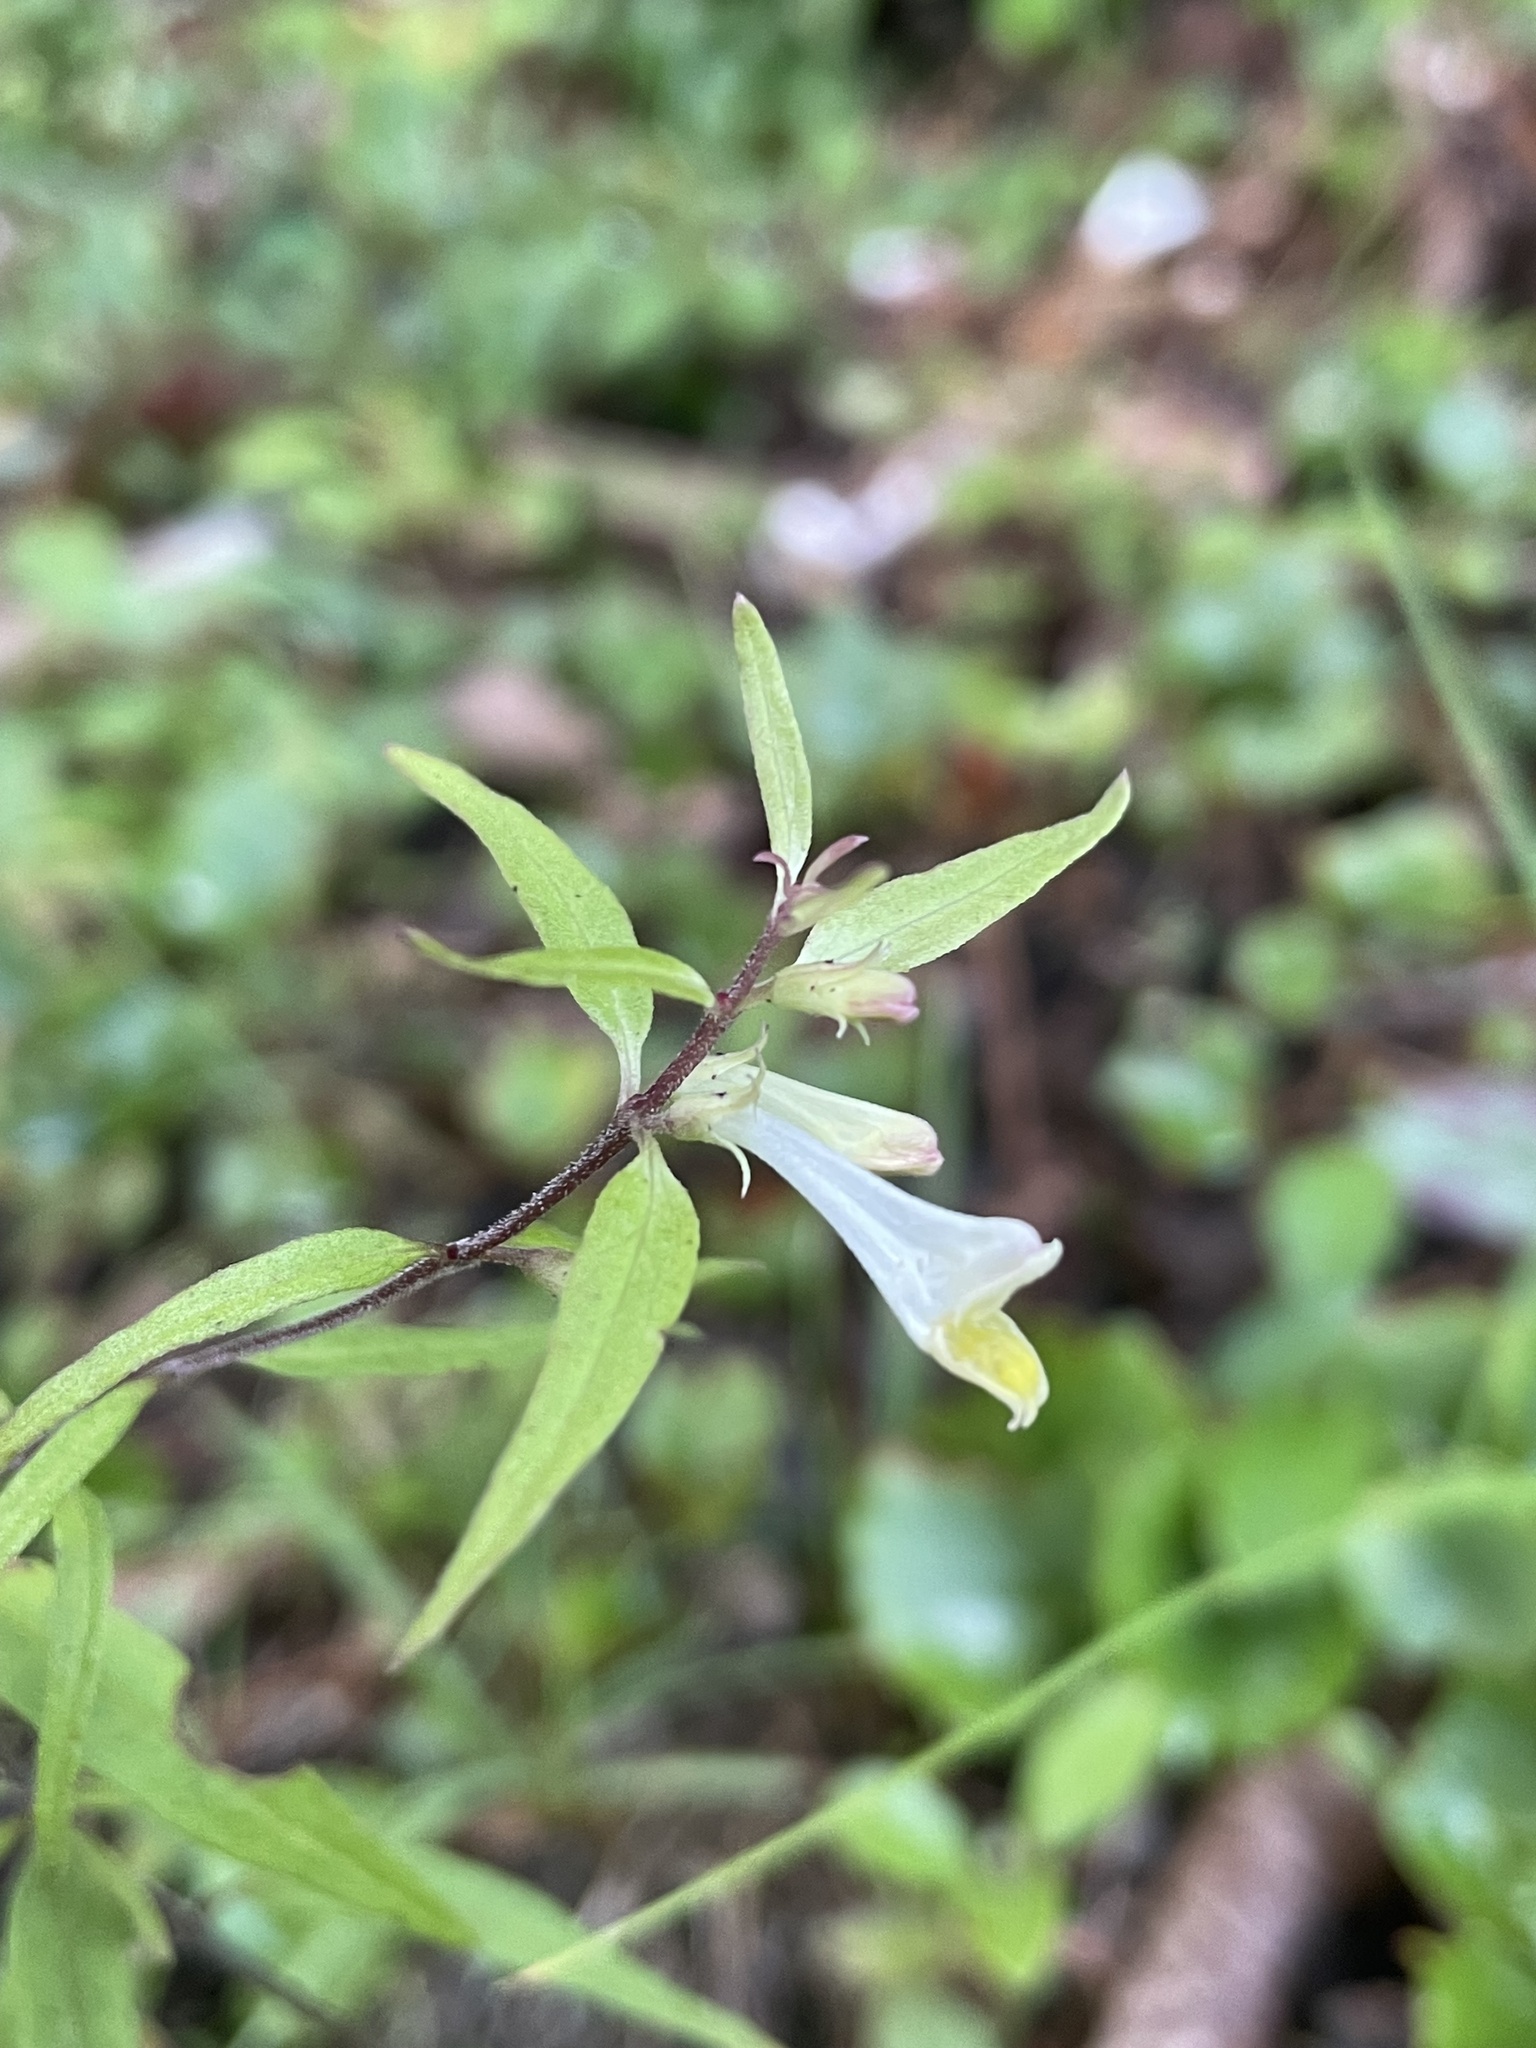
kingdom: Plantae
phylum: Tracheophyta
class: Magnoliopsida
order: Lamiales
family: Orobanchaceae
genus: Melampyrum
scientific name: Melampyrum lineare
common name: American cow-wheat
